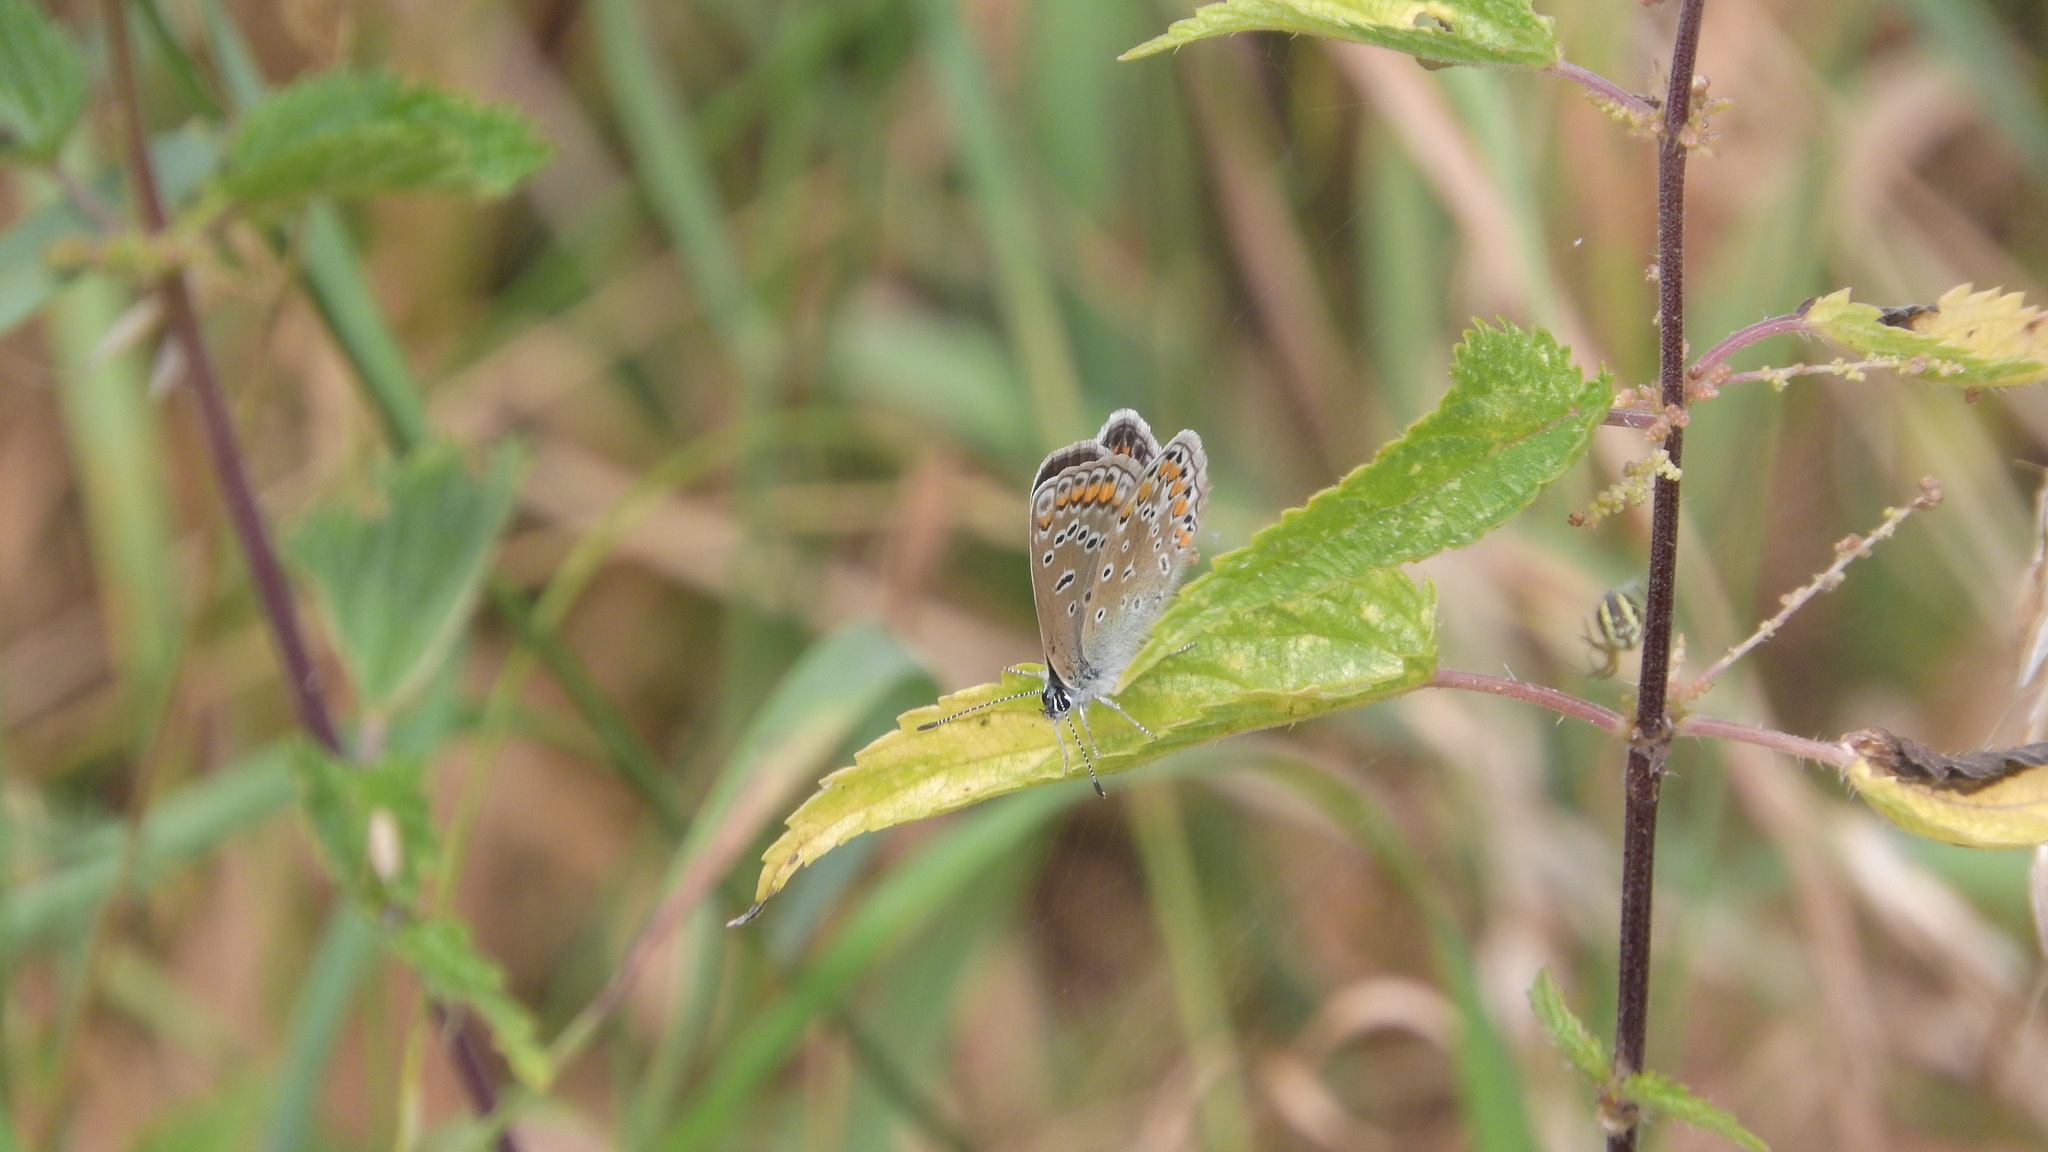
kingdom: Animalia
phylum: Arthropoda
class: Insecta
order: Lepidoptera
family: Lycaenidae
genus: Polyommatus
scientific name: Polyommatus icarus
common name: Common blue
